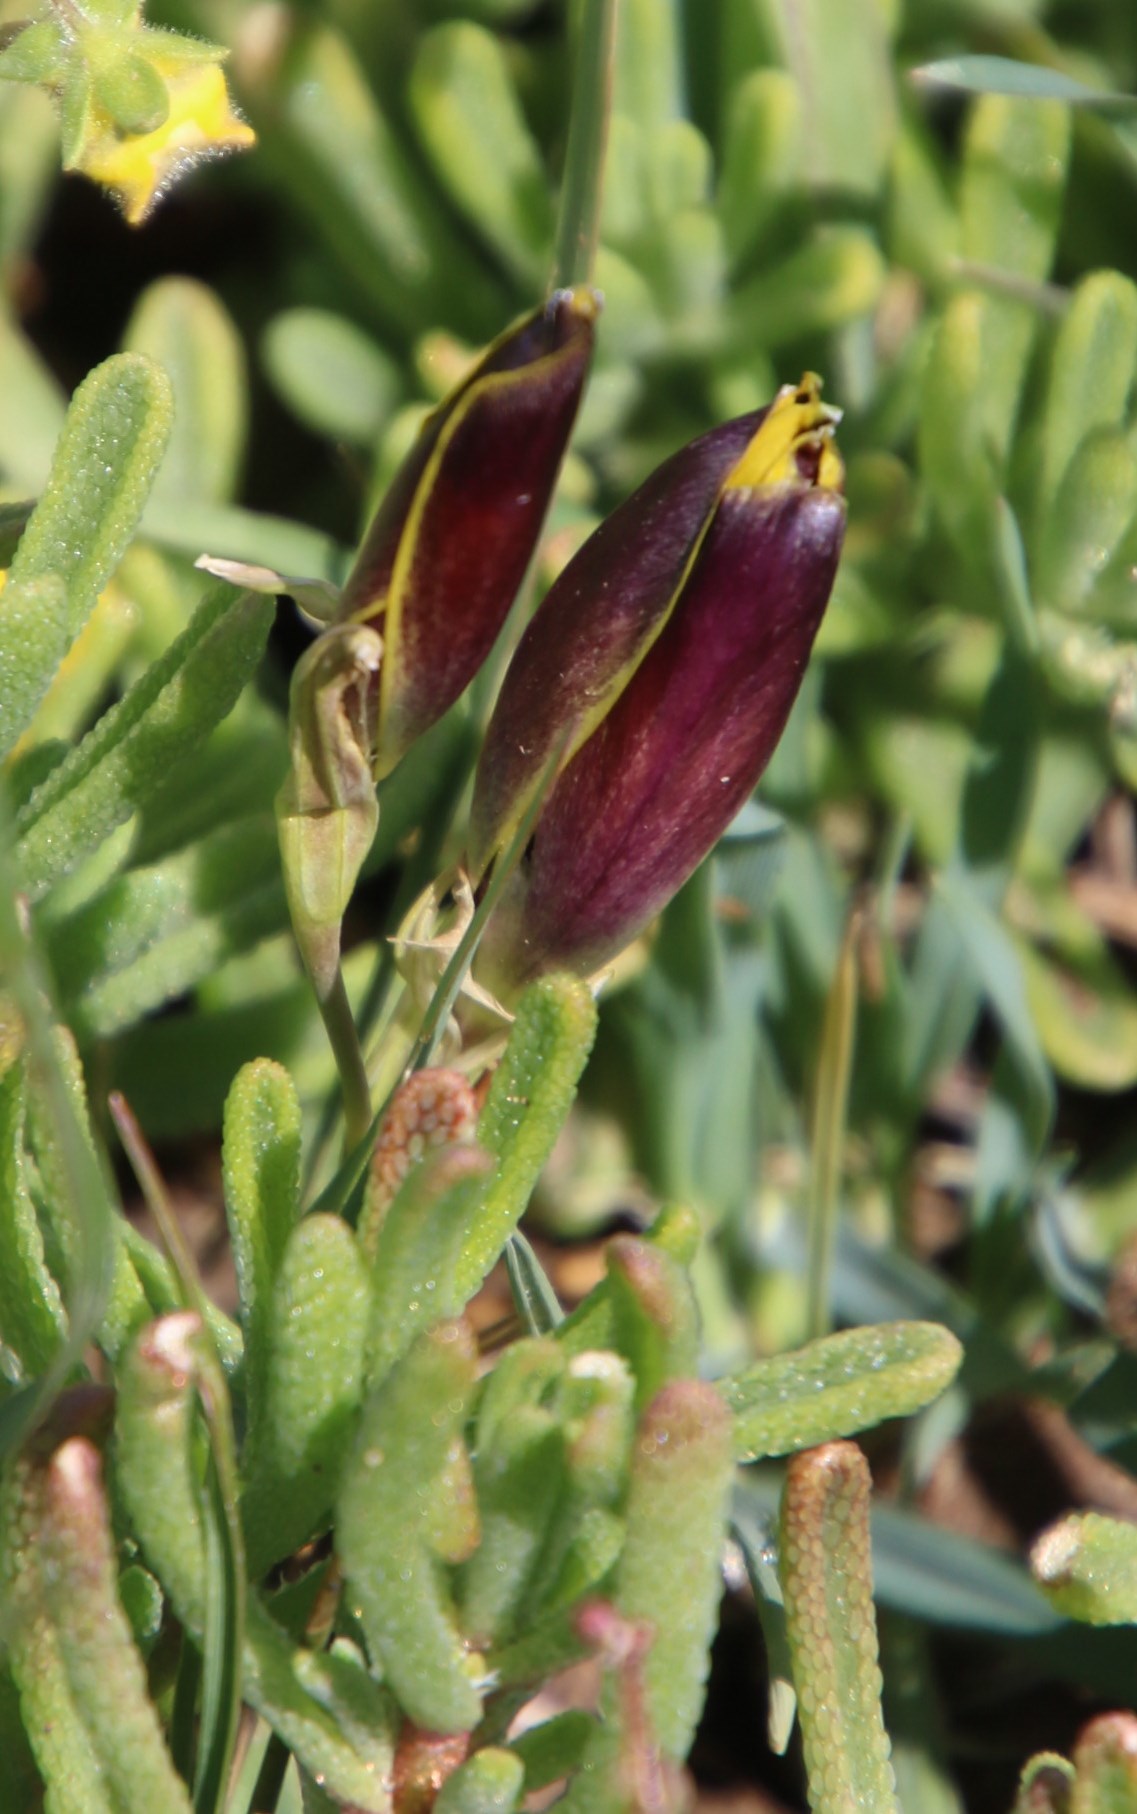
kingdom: Plantae
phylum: Tracheophyta
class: Liliopsida
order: Asparagales
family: Iridaceae
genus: Hesperantha
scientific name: Hesperantha vaginata
